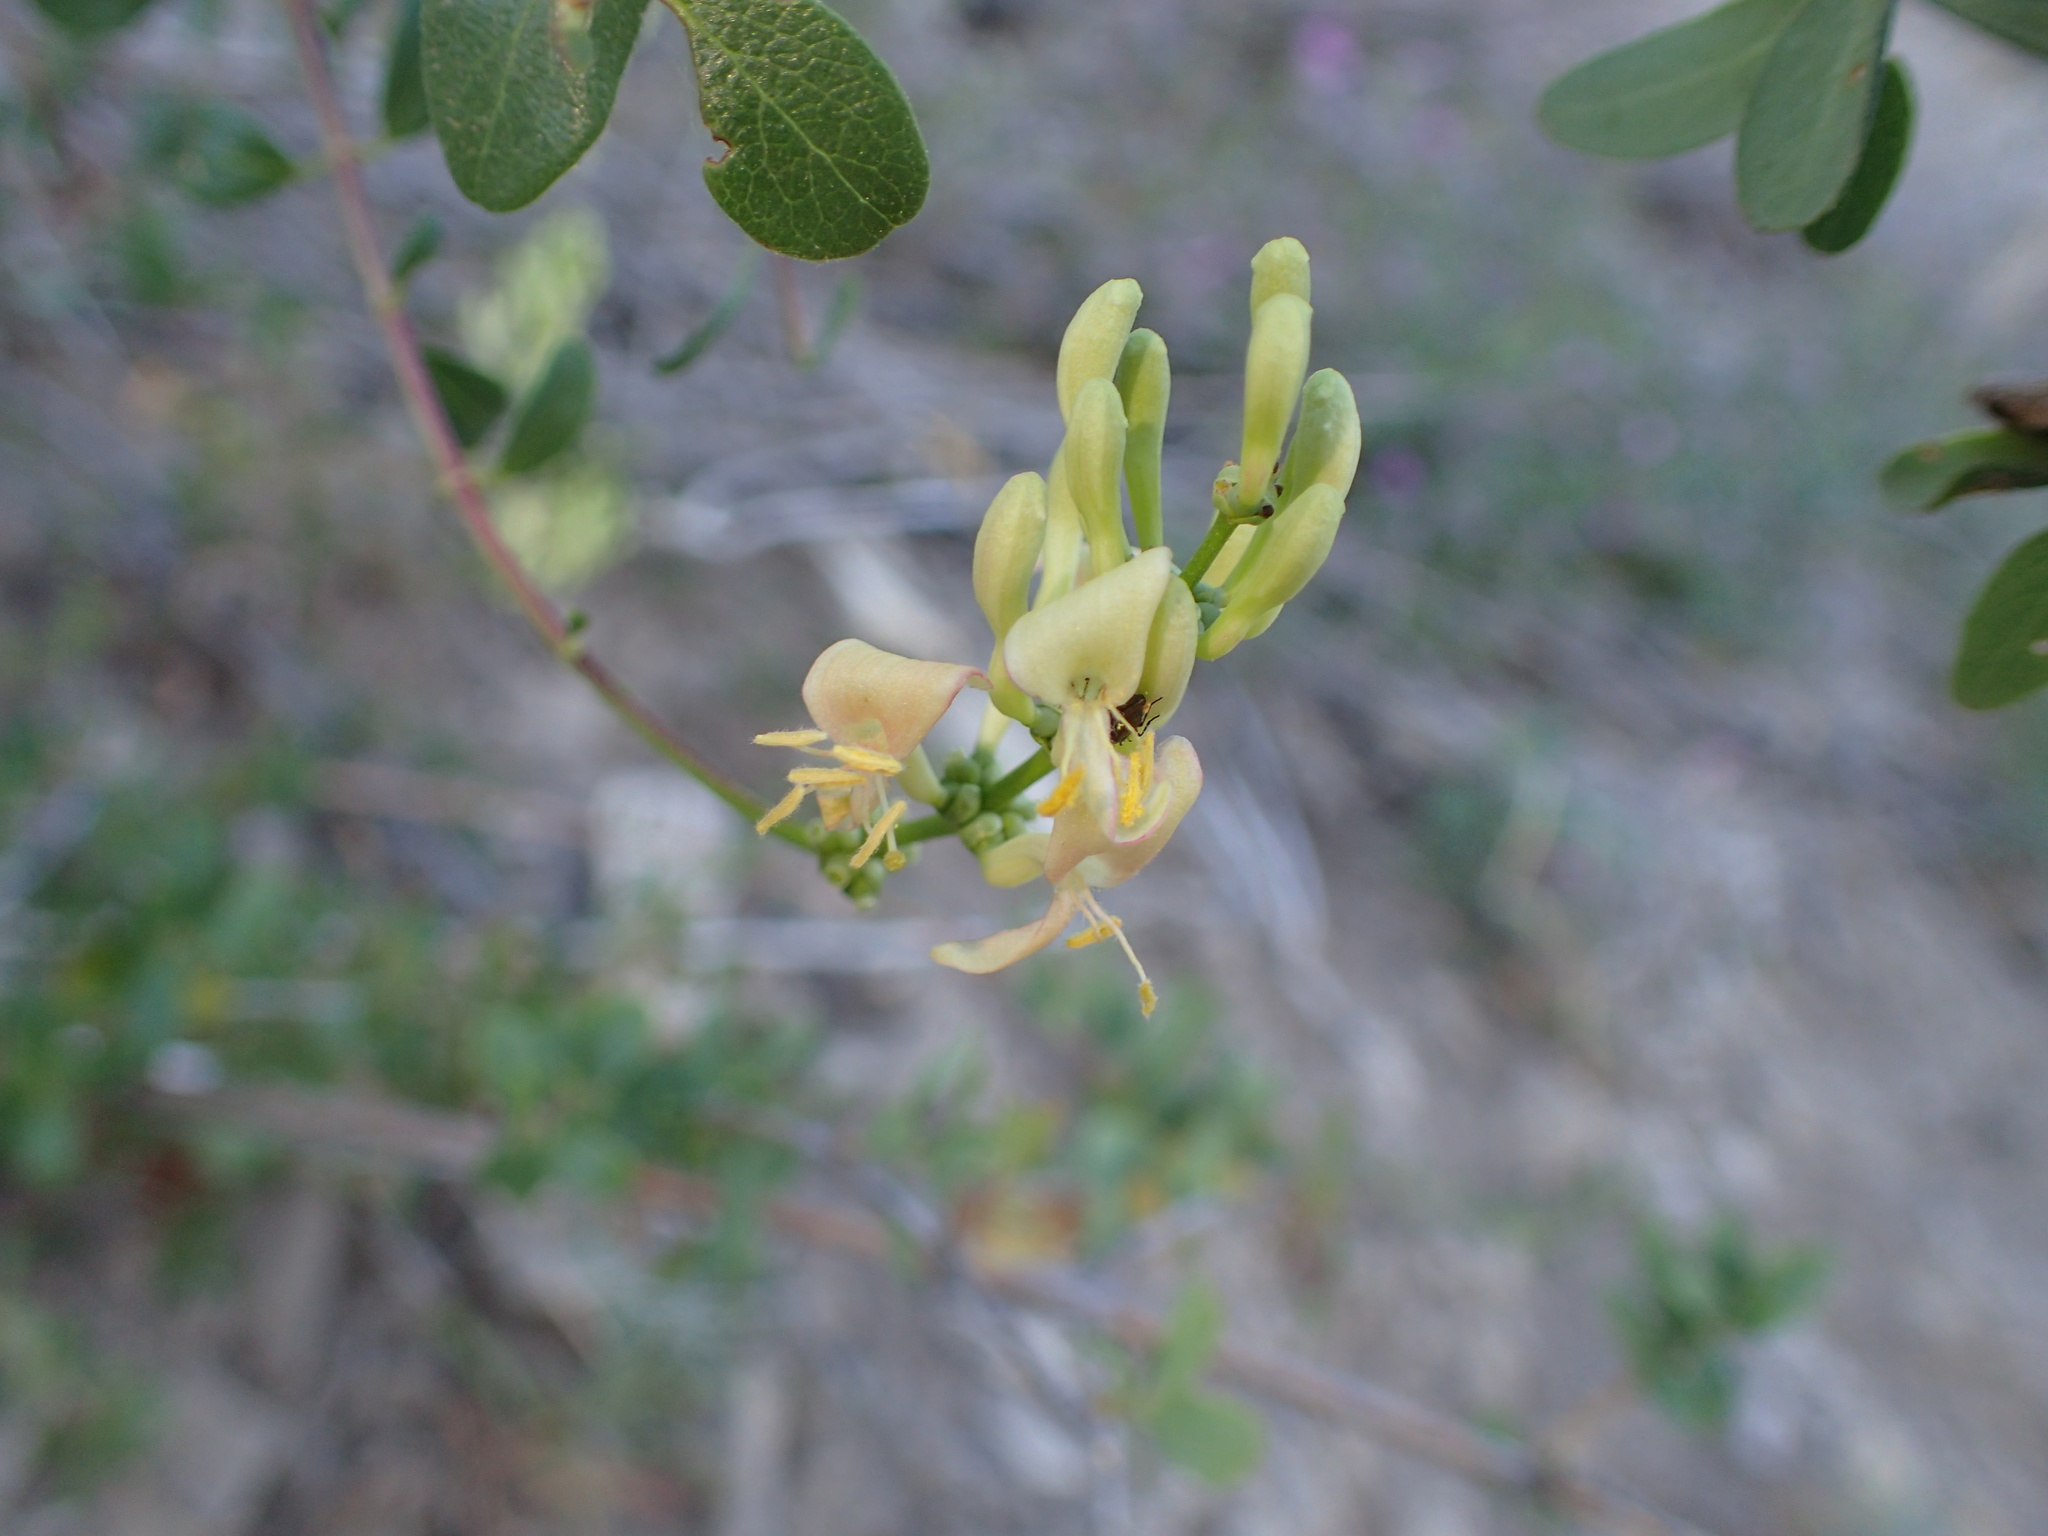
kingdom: Plantae
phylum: Tracheophyta
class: Magnoliopsida
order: Dipsacales
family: Caprifoliaceae
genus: Lonicera
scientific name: Lonicera subspicata
